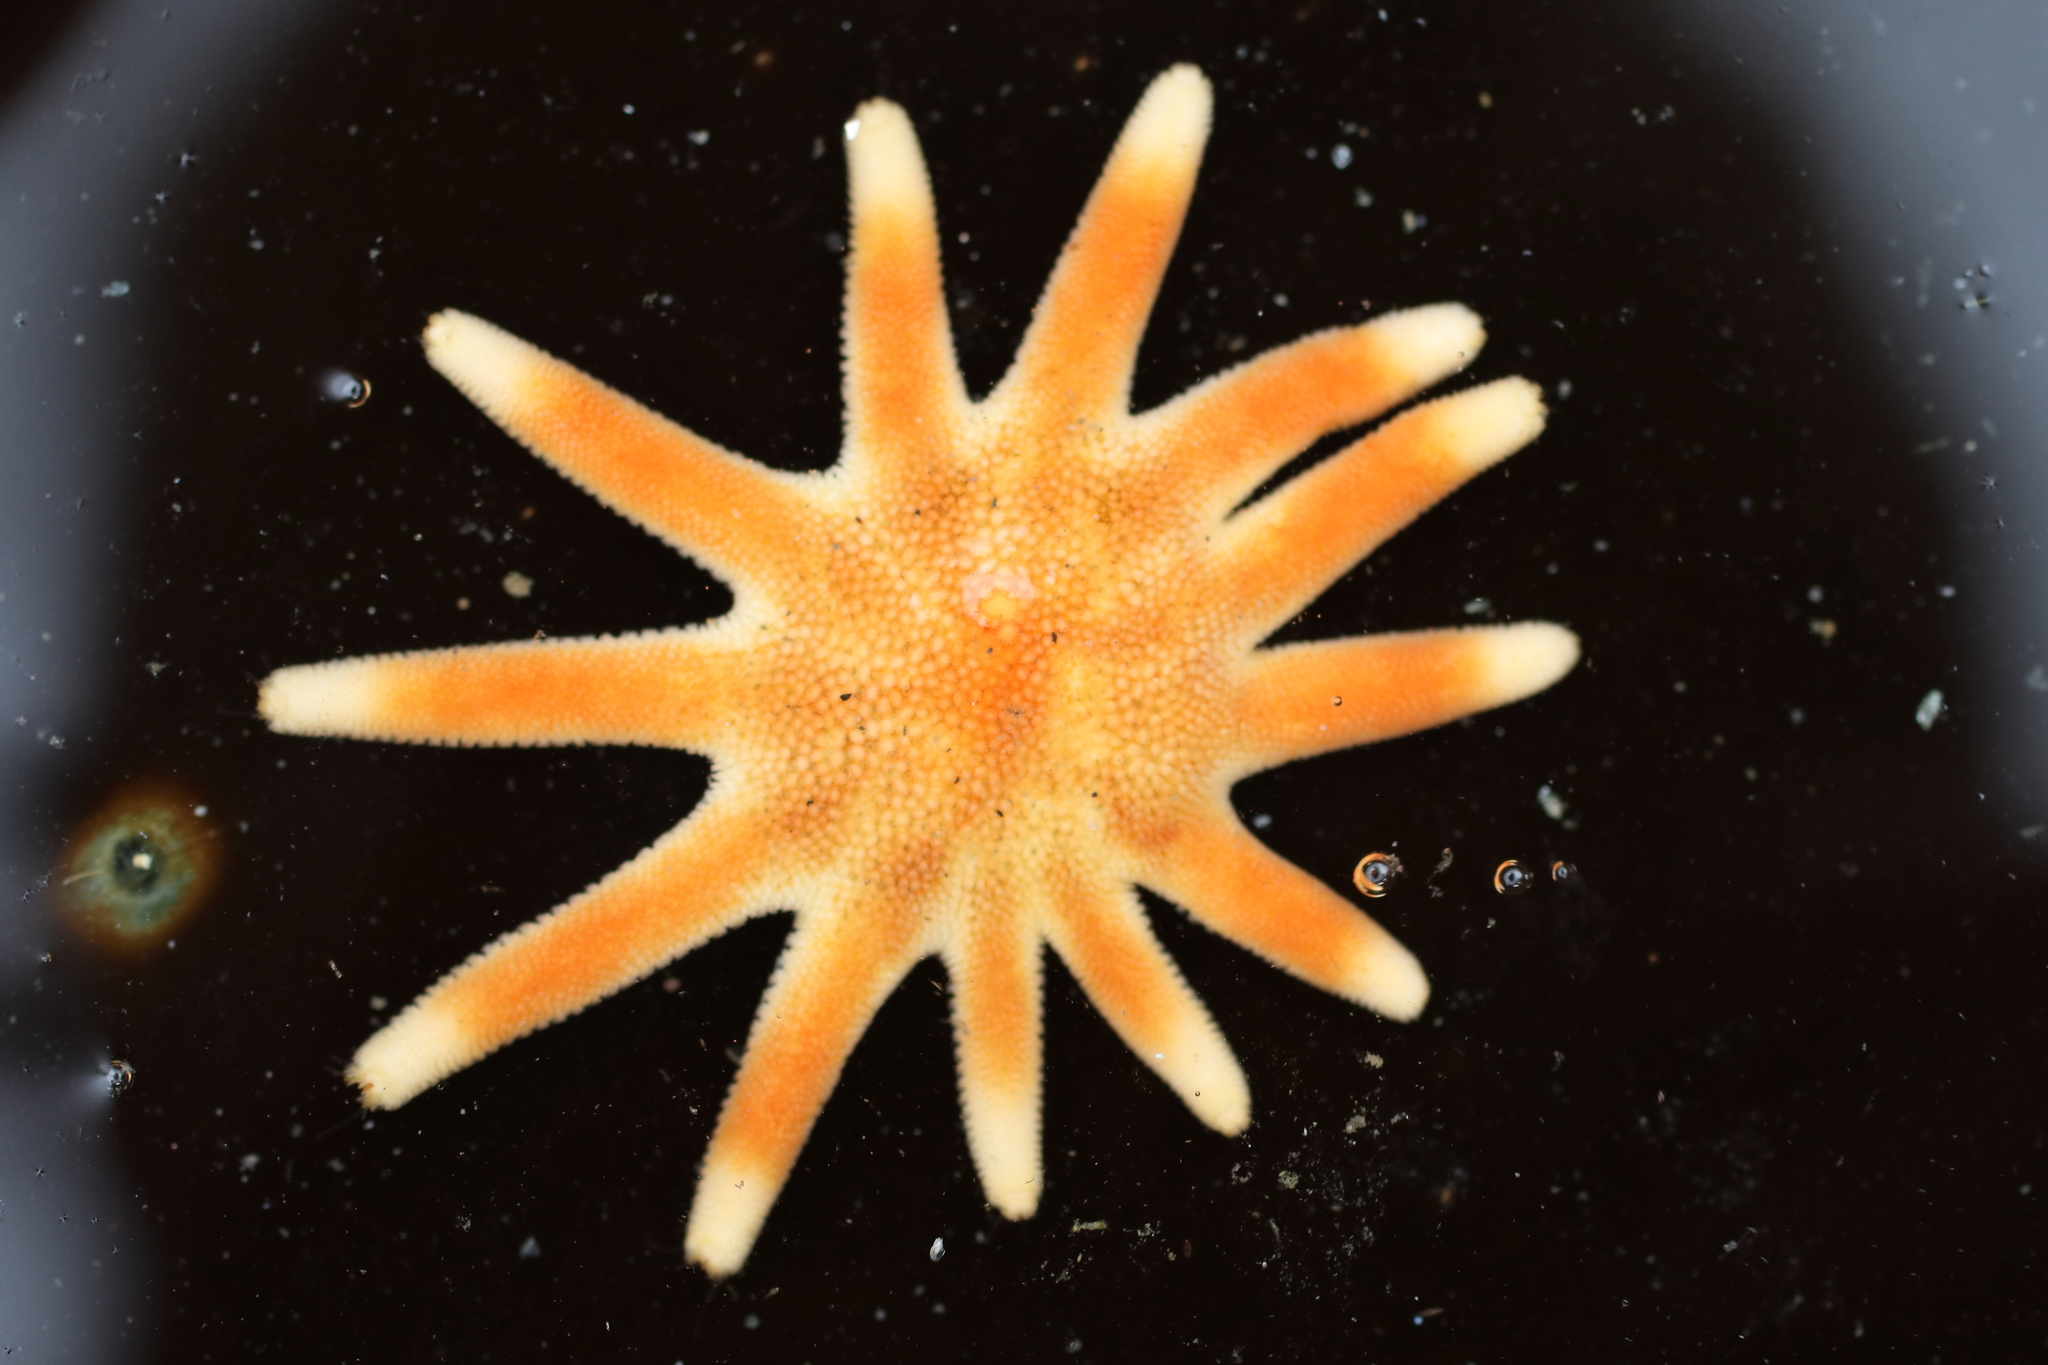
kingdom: Animalia
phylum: Echinodermata
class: Asteroidea
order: Valvatida
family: Solasteridae
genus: Solaster
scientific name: Solaster dawsoni
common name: Morning sun star
